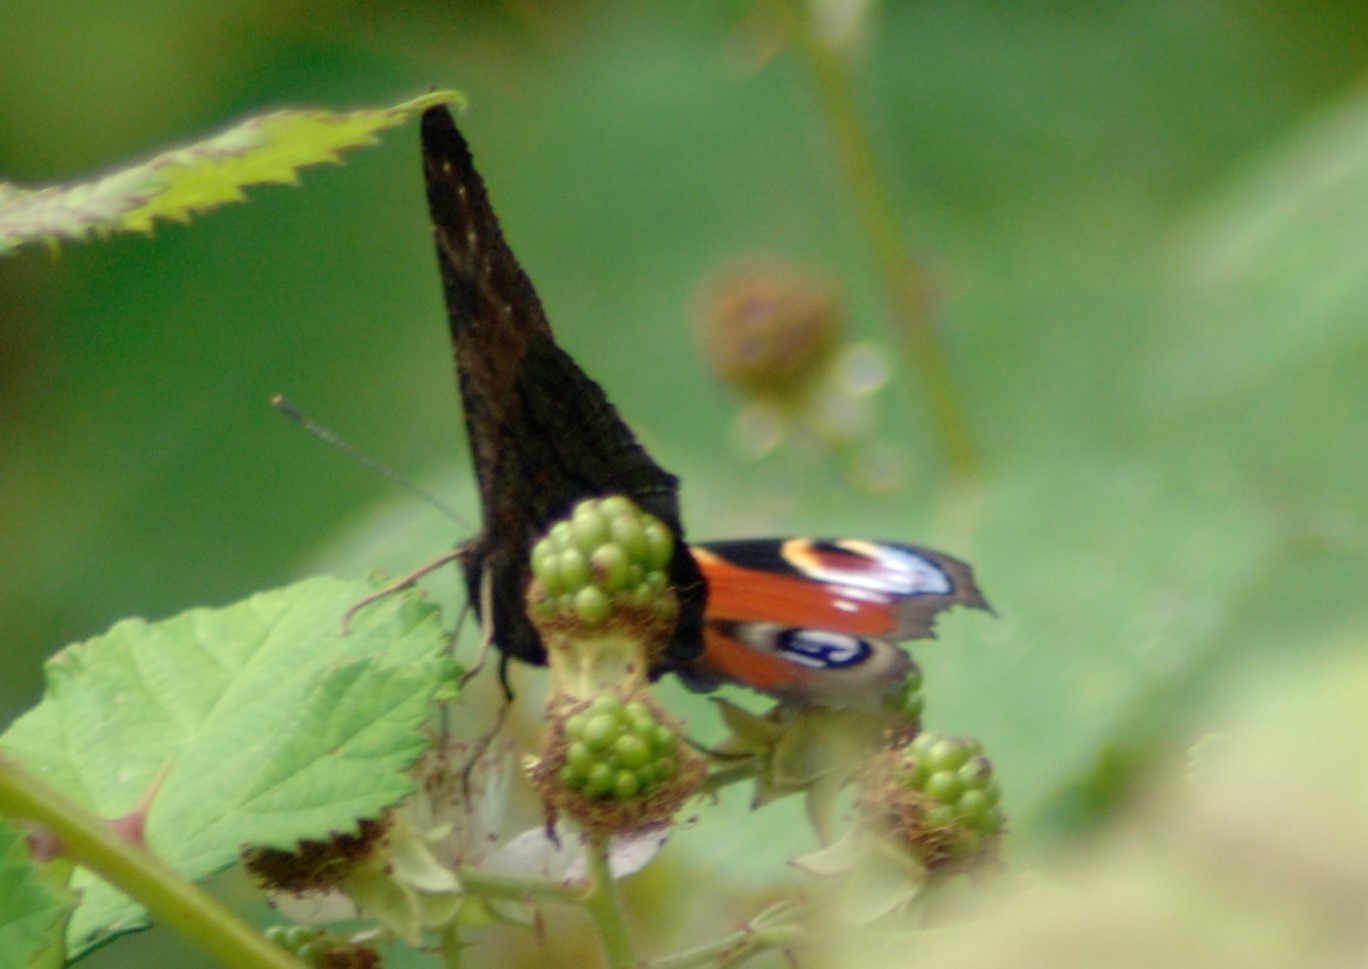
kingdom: Animalia
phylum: Arthropoda
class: Insecta
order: Lepidoptera
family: Nymphalidae
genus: Aglais
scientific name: Aglais io
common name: Peacock
